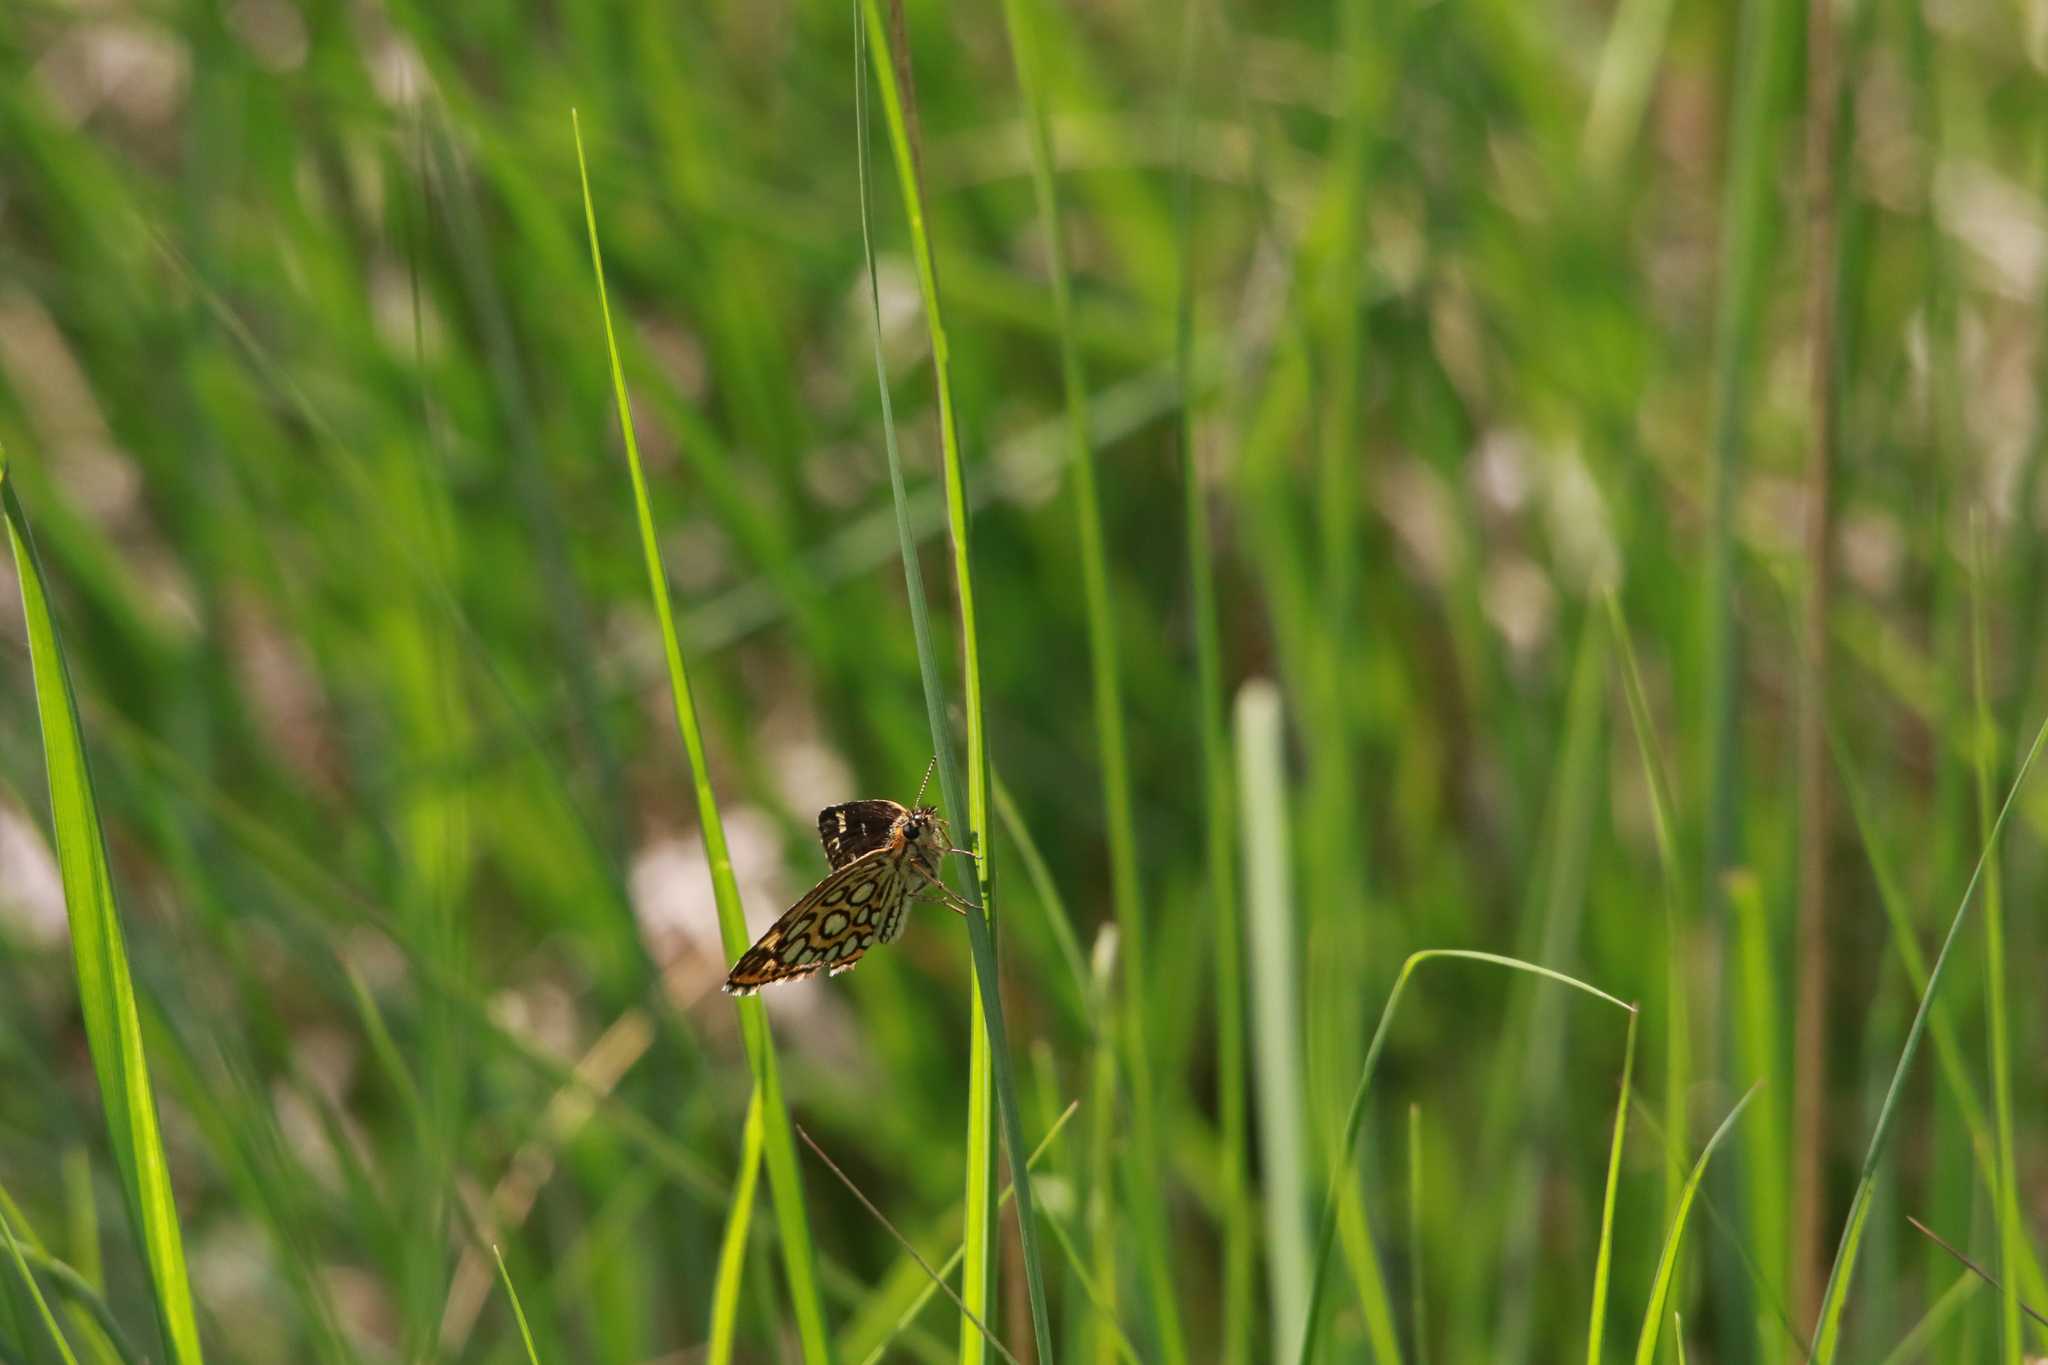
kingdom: Animalia
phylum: Arthropoda
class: Insecta
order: Lepidoptera
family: Hesperiidae
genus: Heteropterus
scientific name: Heteropterus morpheus
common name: Large chequered skipper
